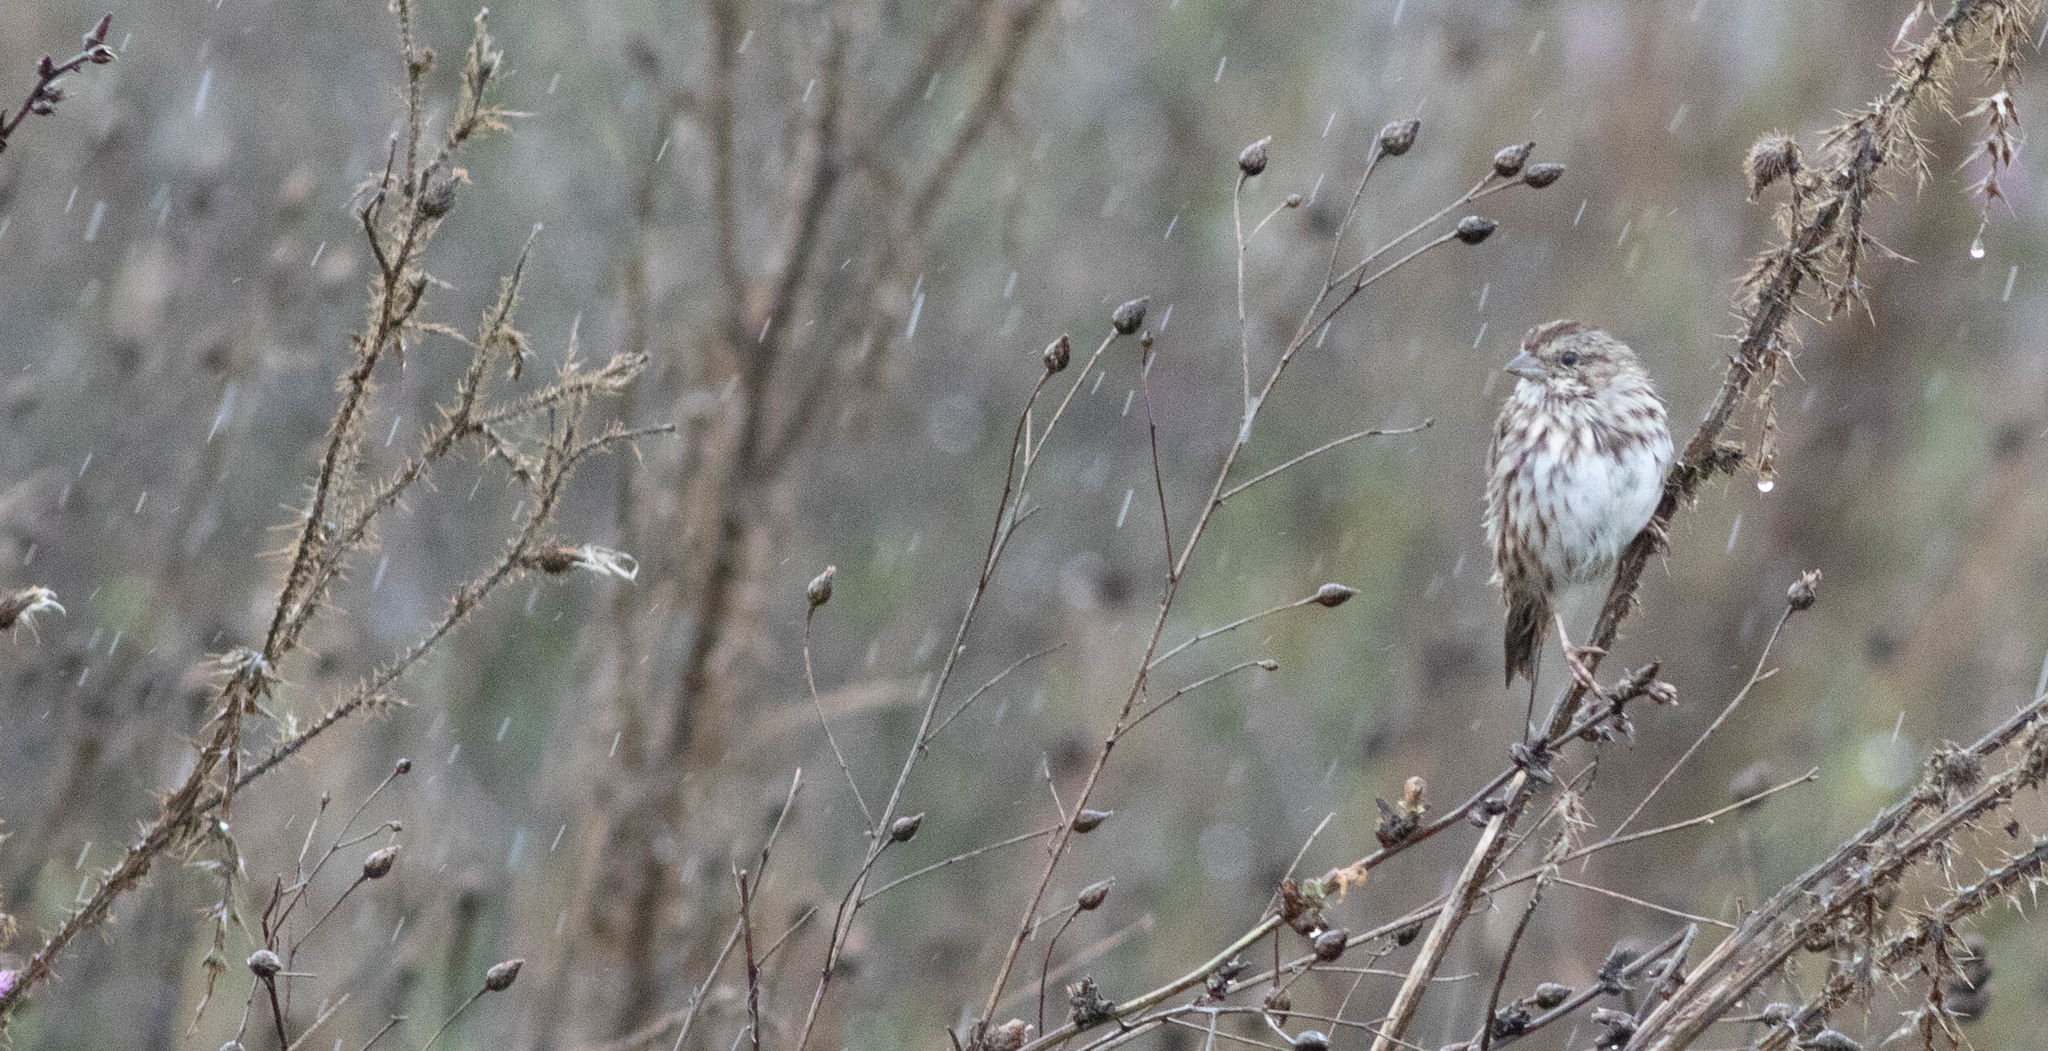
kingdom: Animalia
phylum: Chordata
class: Aves
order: Passeriformes
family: Passerellidae
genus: Melospiza
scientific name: Melospiza melodia
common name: Song sparrow
